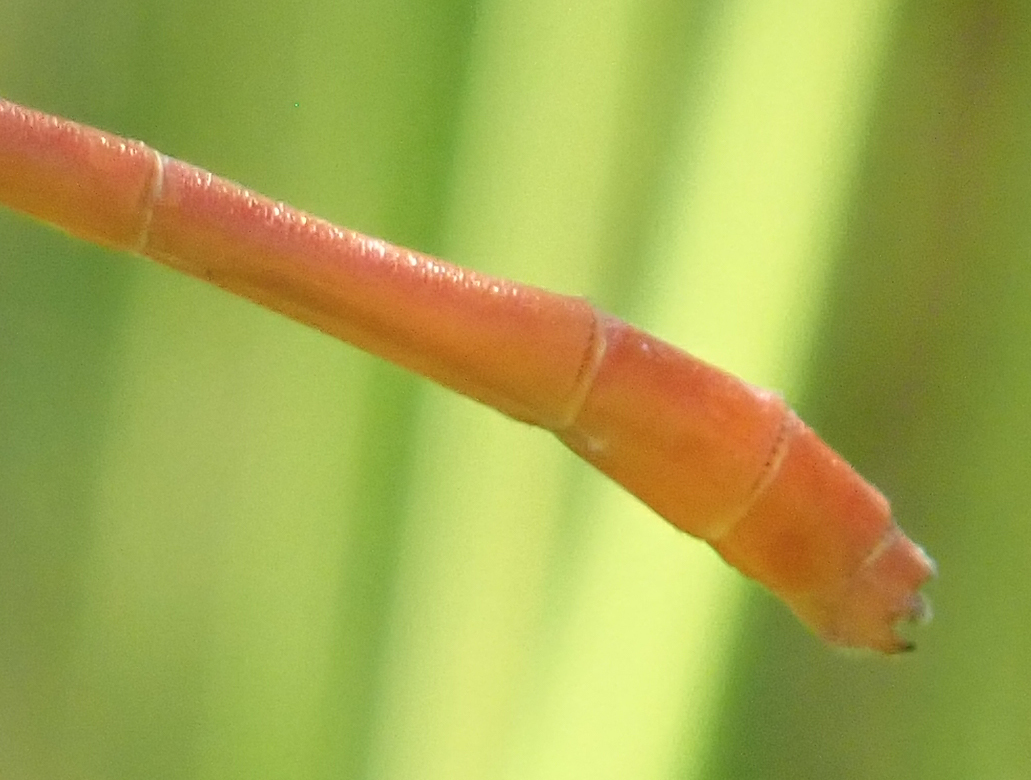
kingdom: Animalia
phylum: Arthropoda
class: Insecta
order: Odonata
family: Coenagrionidae
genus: Ceriagrion
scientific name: Ceriagrion glabrum
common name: Common pond damsel
